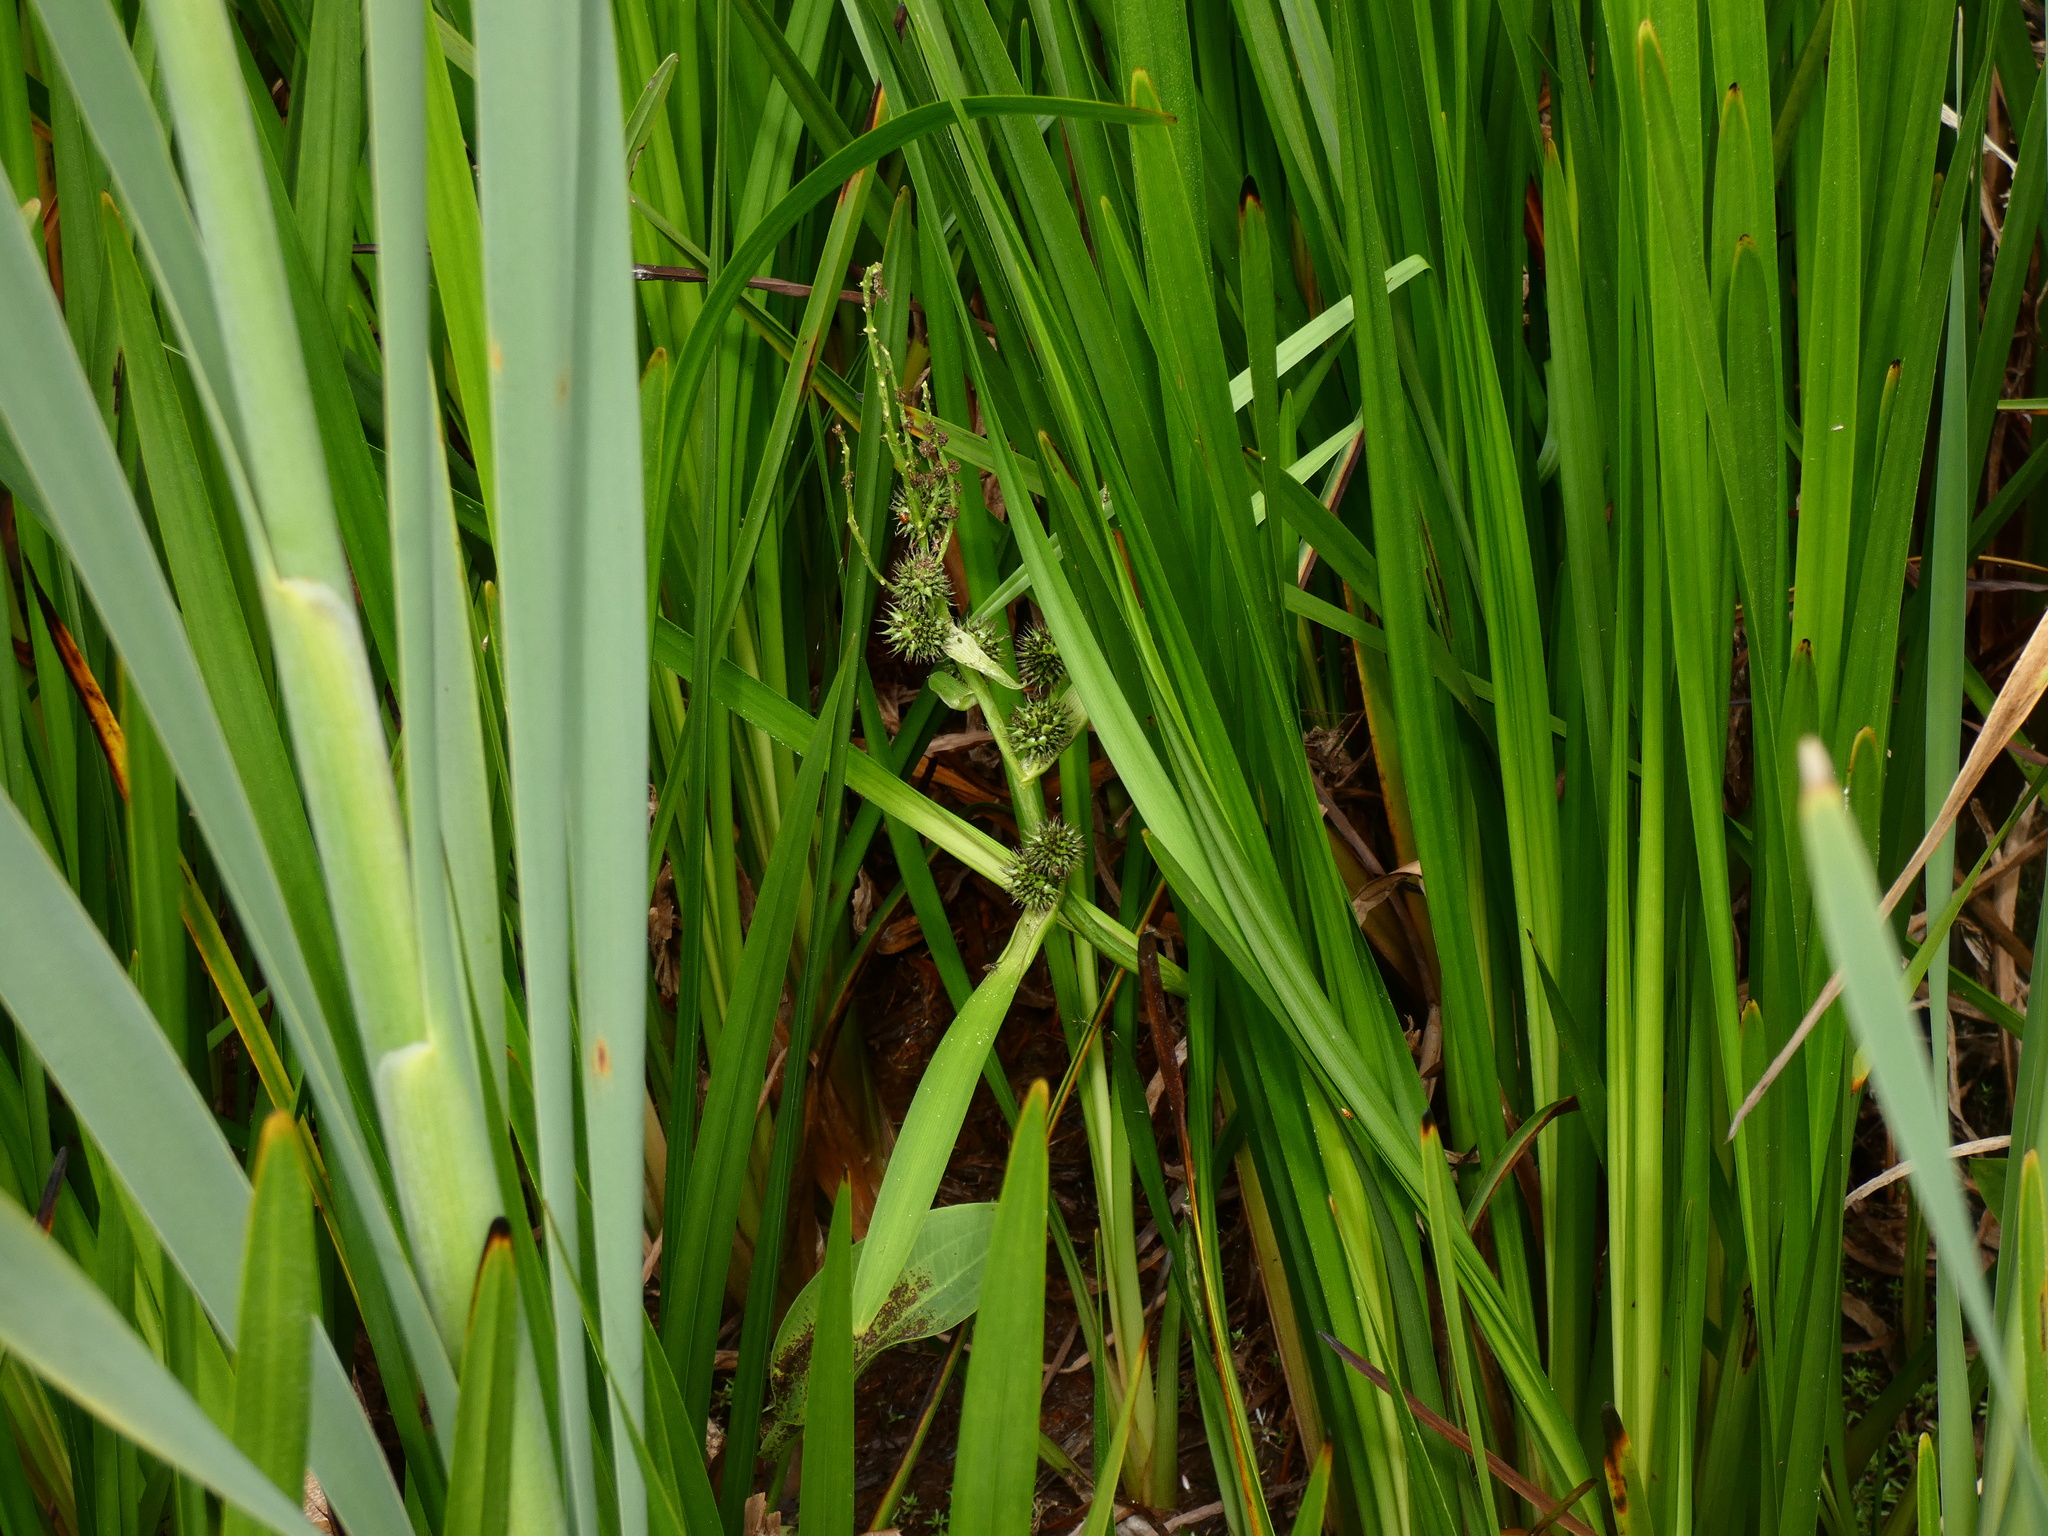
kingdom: Plantae
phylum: Tracheophyta
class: Liliopsida
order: Poales
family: Typhaceae
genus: Sparganium
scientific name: Sparganium erectum
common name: Branched bur-reed
